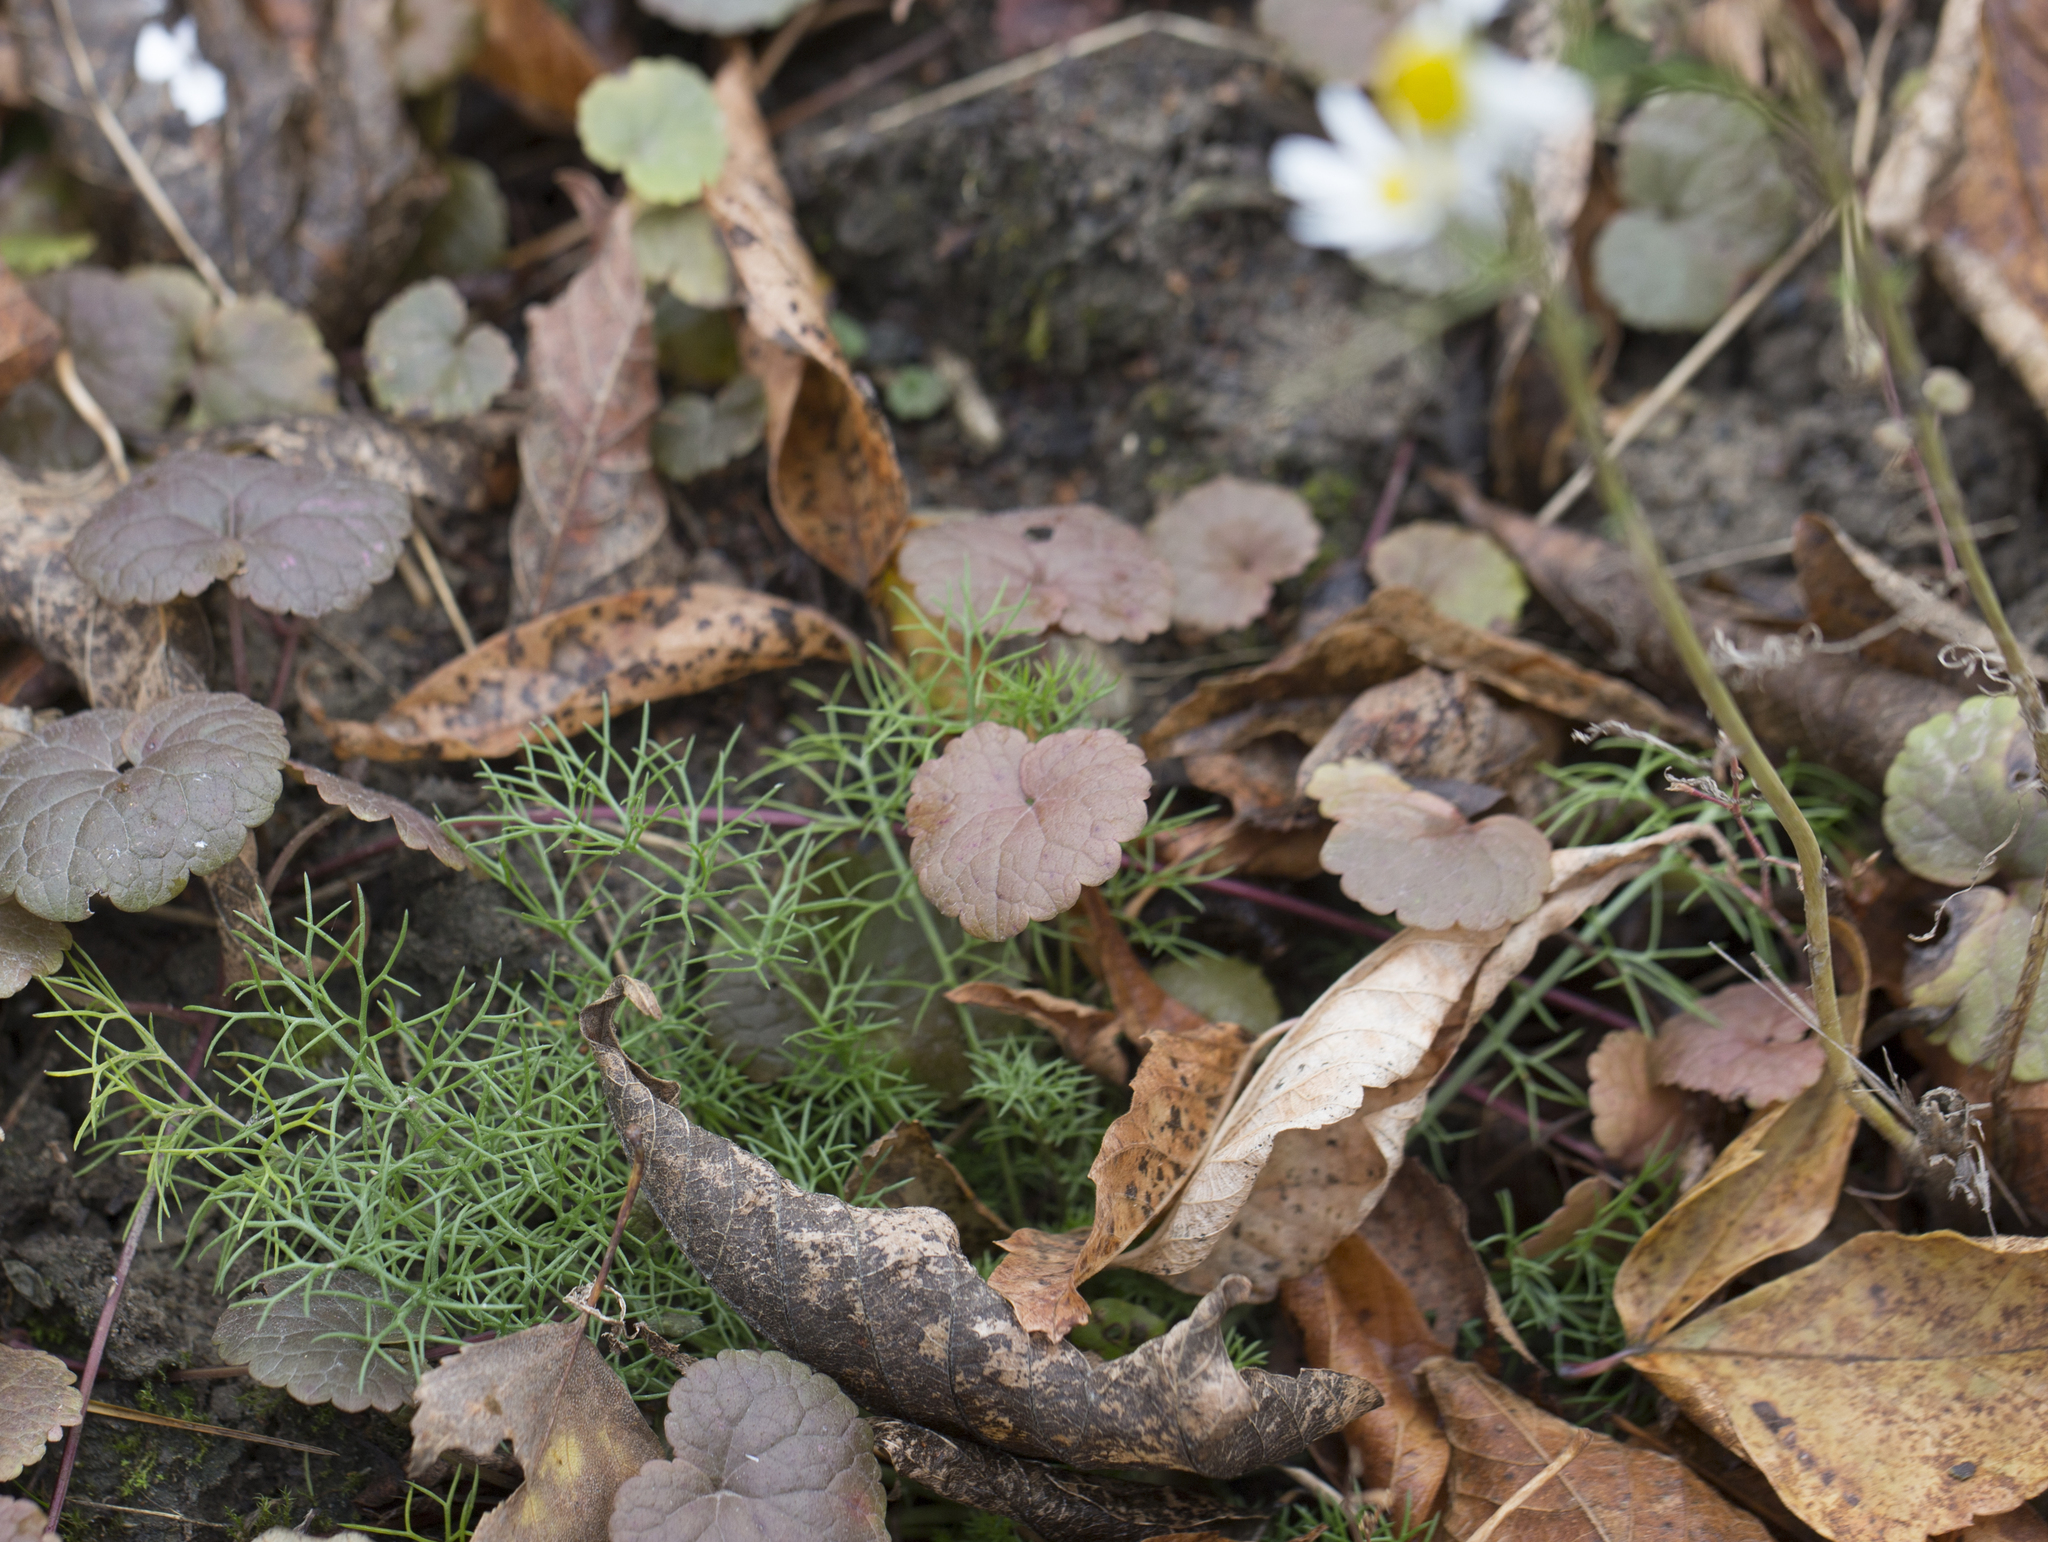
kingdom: Plantae
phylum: Tracheophyta
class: Magnoliopsida
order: Asterales
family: Asteraceae
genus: Tripleurospermum
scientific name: Tripleurospermum inodorum
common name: Scentless mayweed
